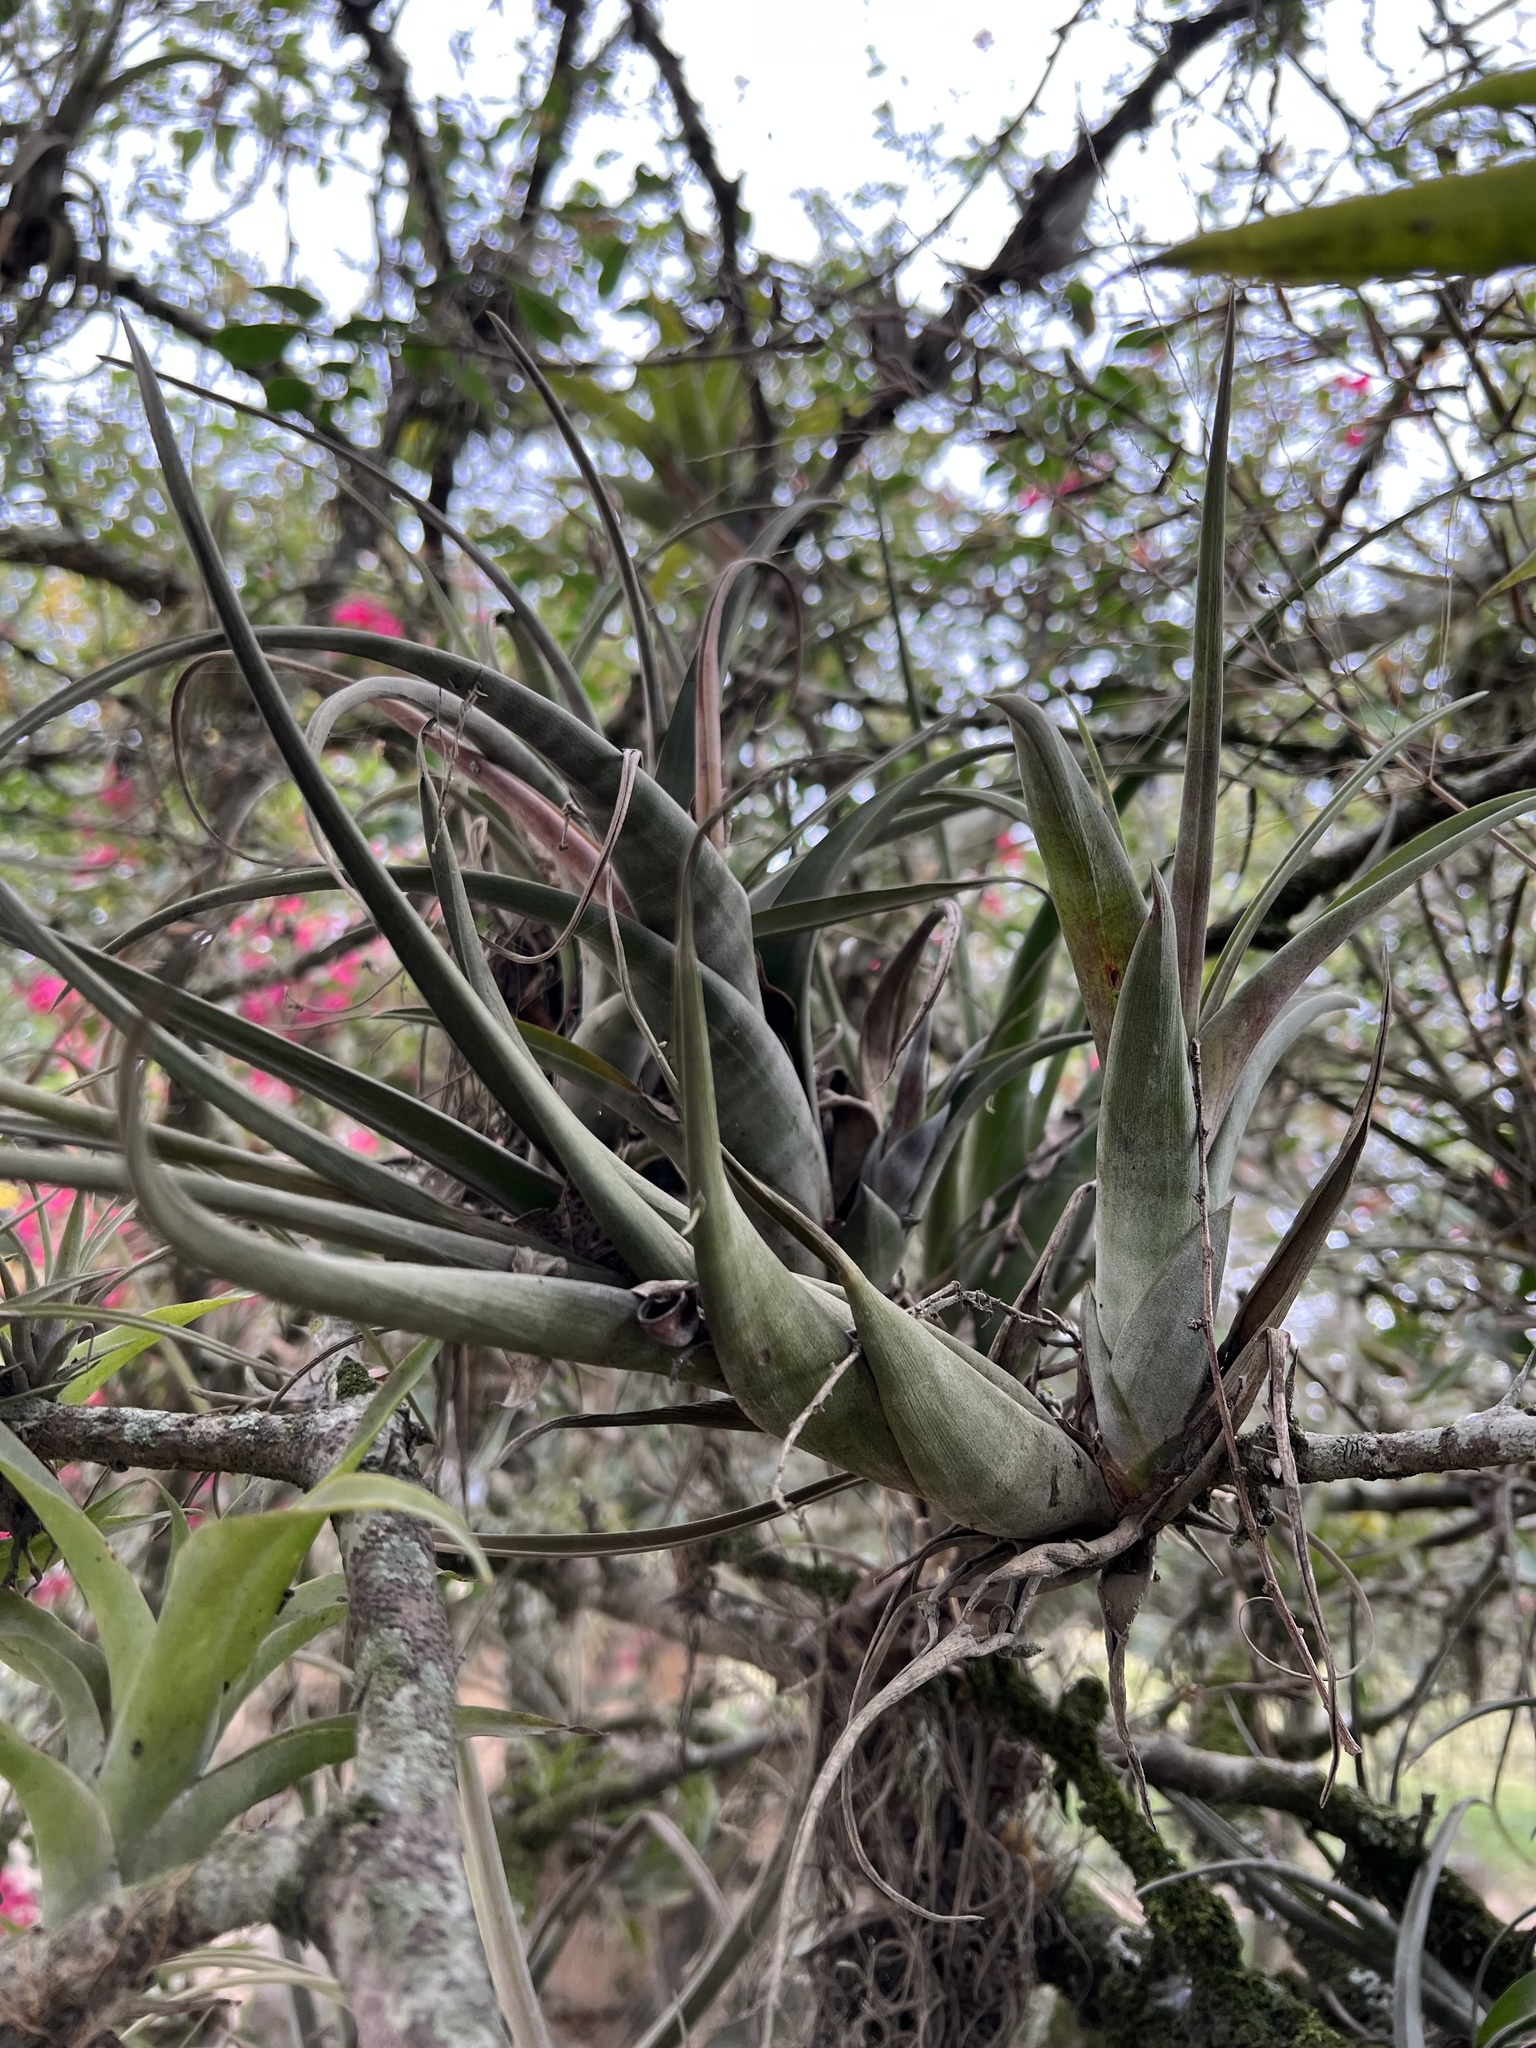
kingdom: Plantae
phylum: Tracheophyta
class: Liliopsida
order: Poales
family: Bromeliaceae
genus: Tillandsia
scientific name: Tillandsia flexuosa
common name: Banded airplant
